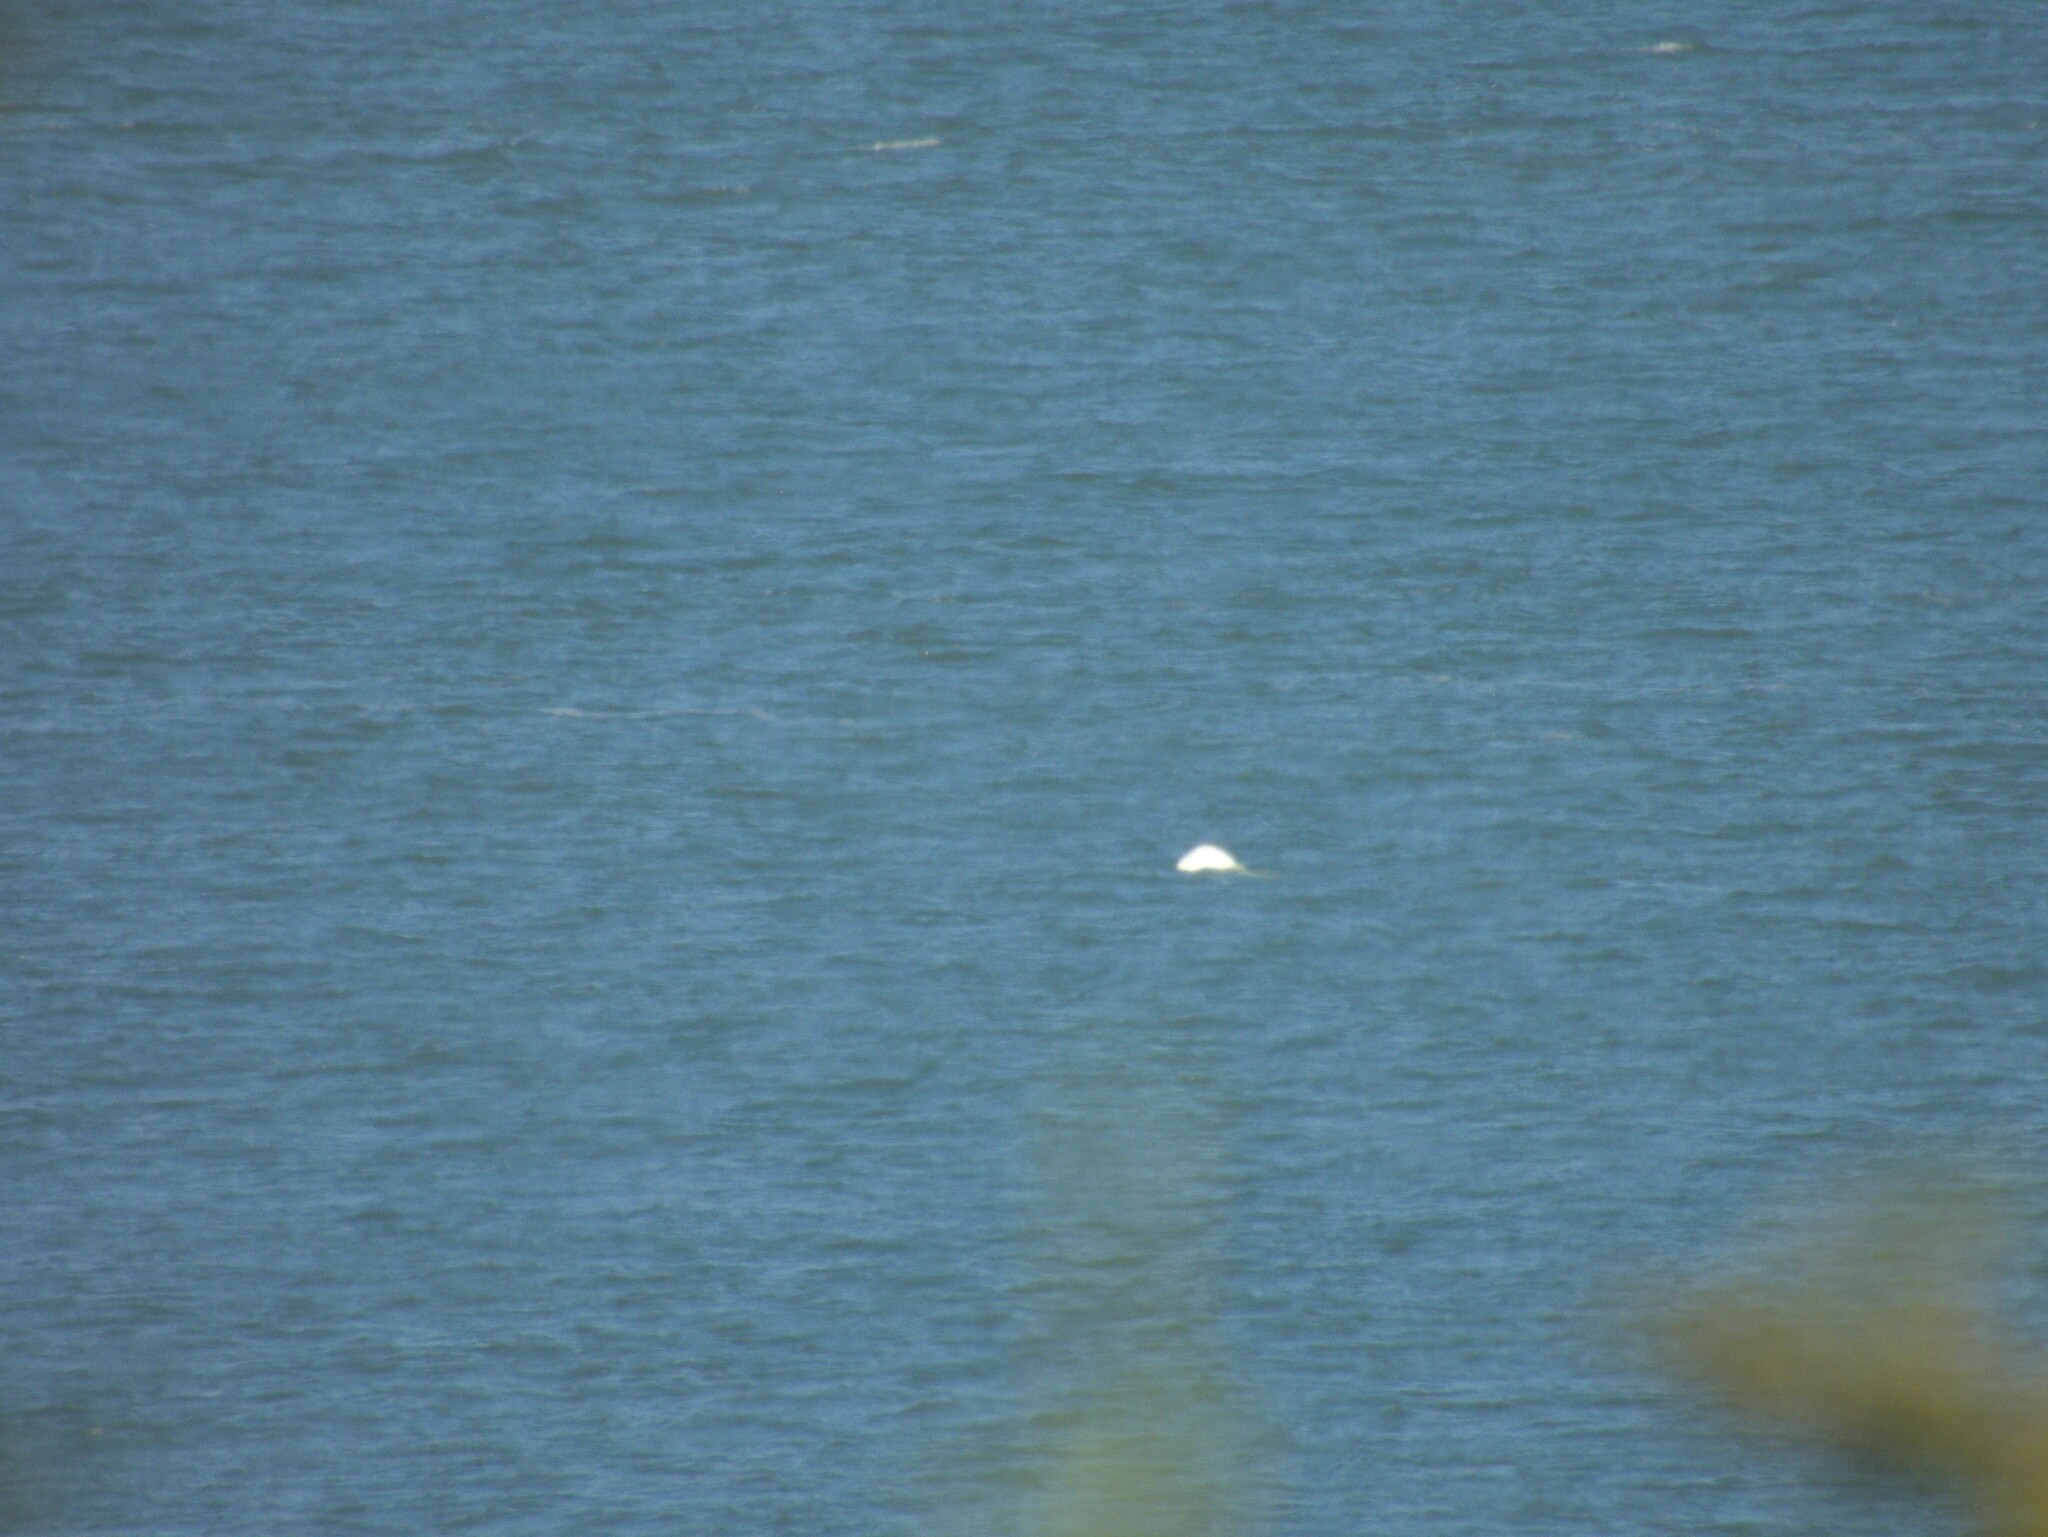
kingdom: Animalia
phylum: Chordata
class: Mammalia
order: Cetacea
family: Monodontidae
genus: Delphinapterus
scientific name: Delphinapterus leucas
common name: Beluga
